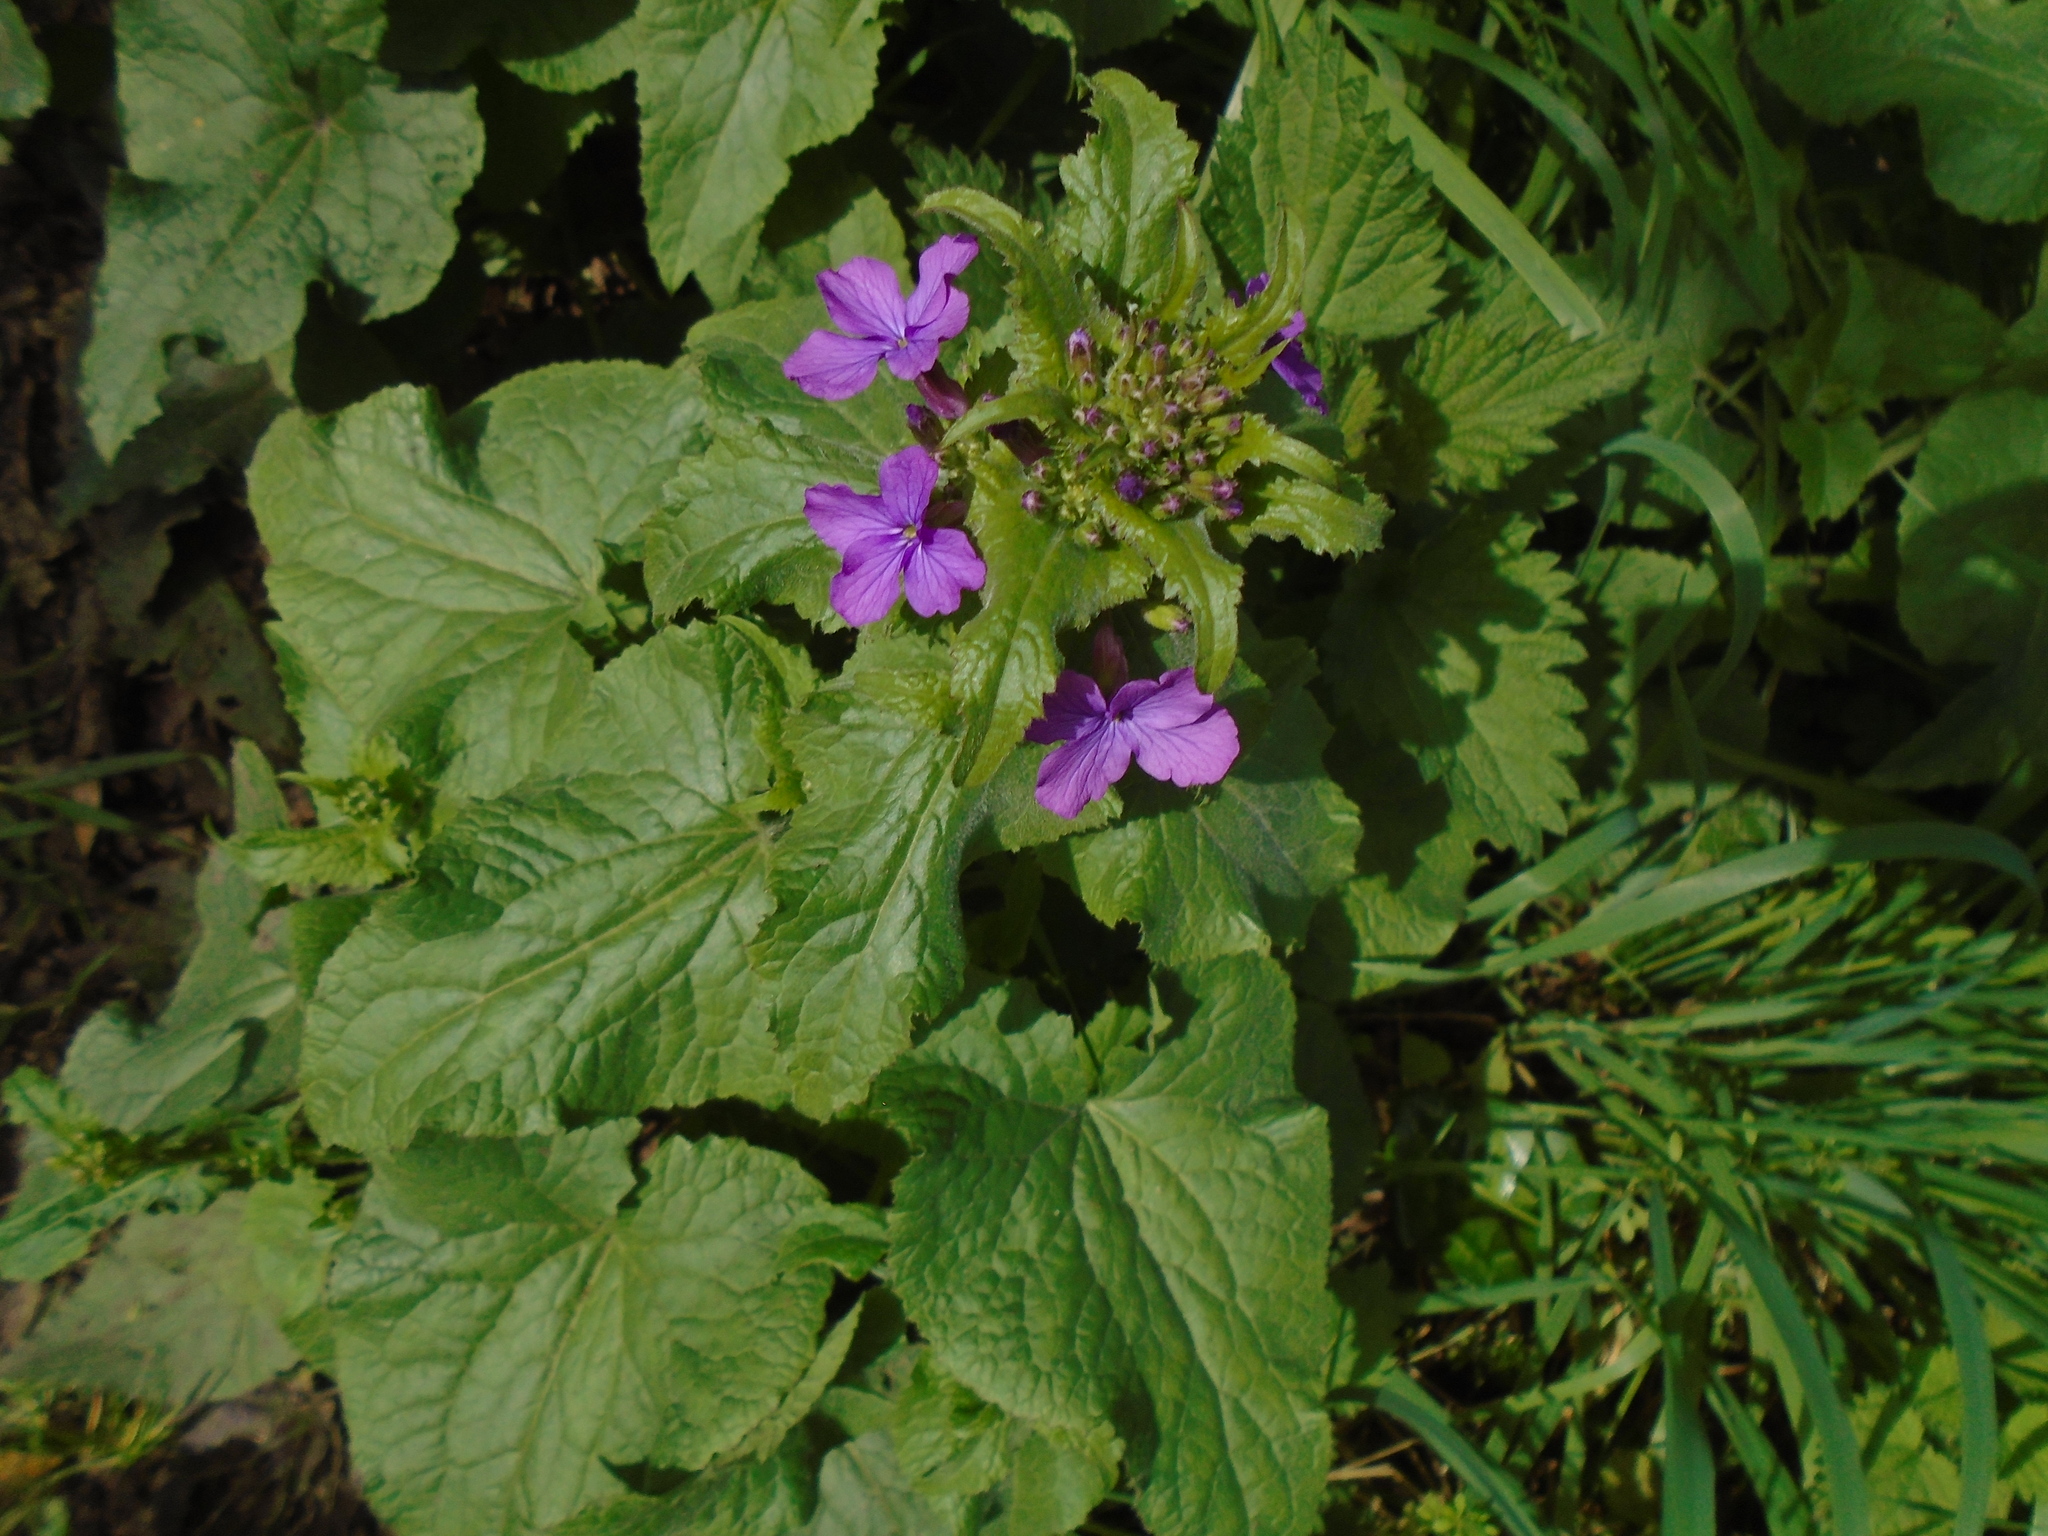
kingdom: Plantae
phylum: Tracheophyta
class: Magnoliopsida
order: Brassicales
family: Brassicaceae
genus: Lunaria
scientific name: Lunaria annua
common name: Honesty
